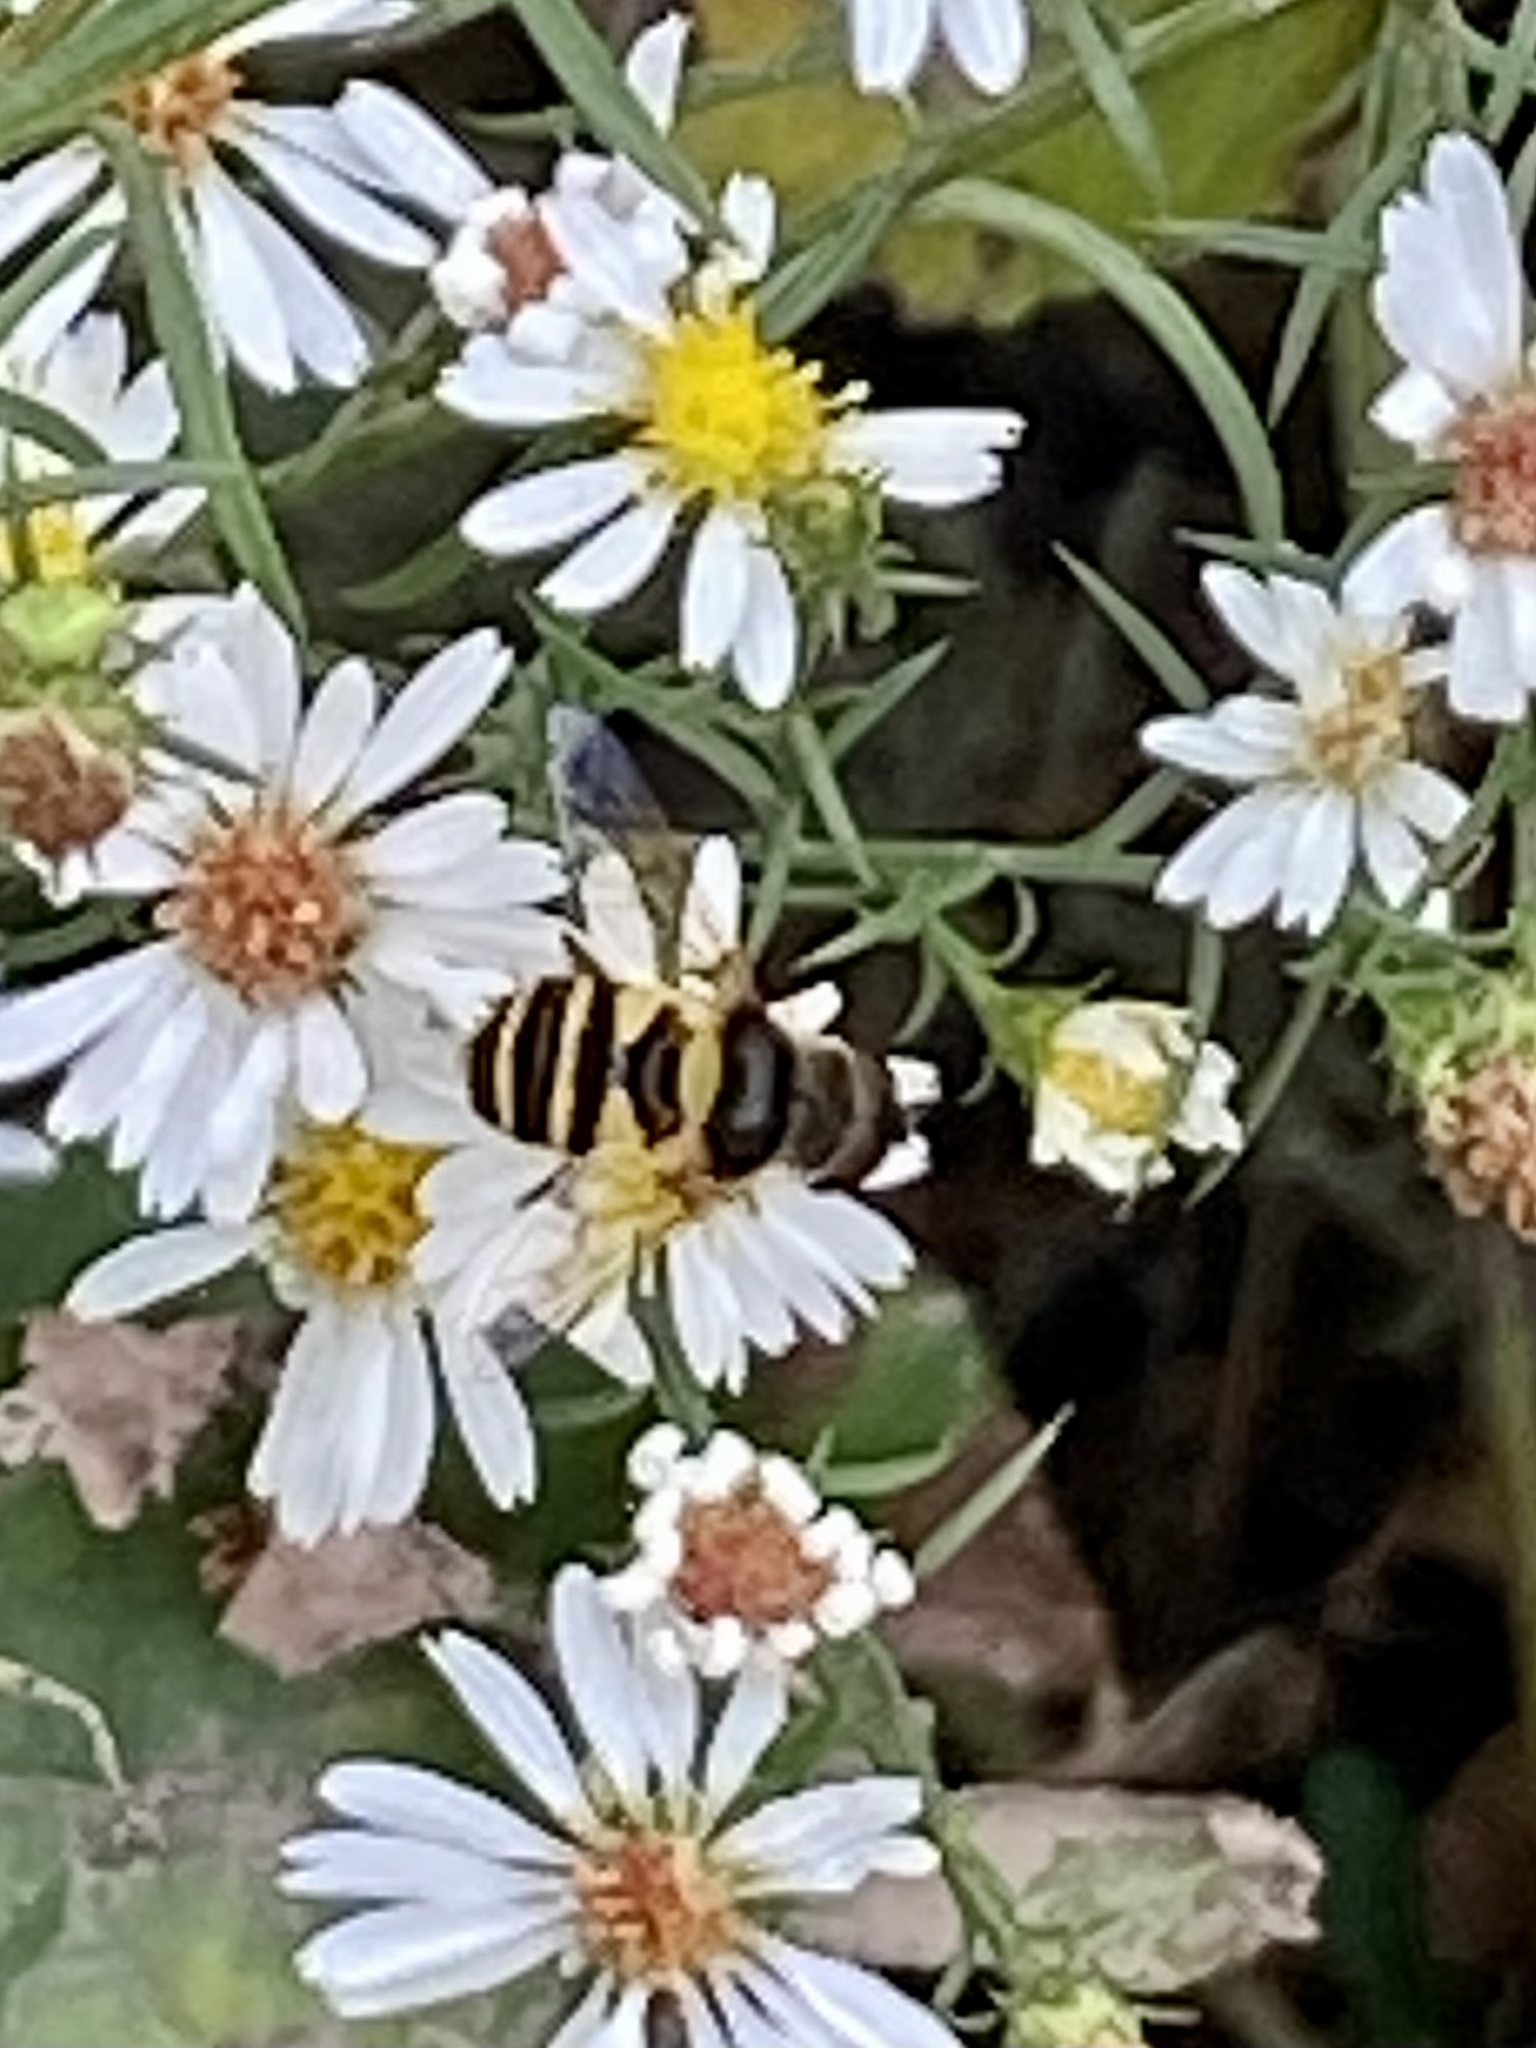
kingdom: Animalia
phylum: Arthropoda
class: Insecta
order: Diptera
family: Syrphidae
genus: Eristalis
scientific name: Eristalis transversa
